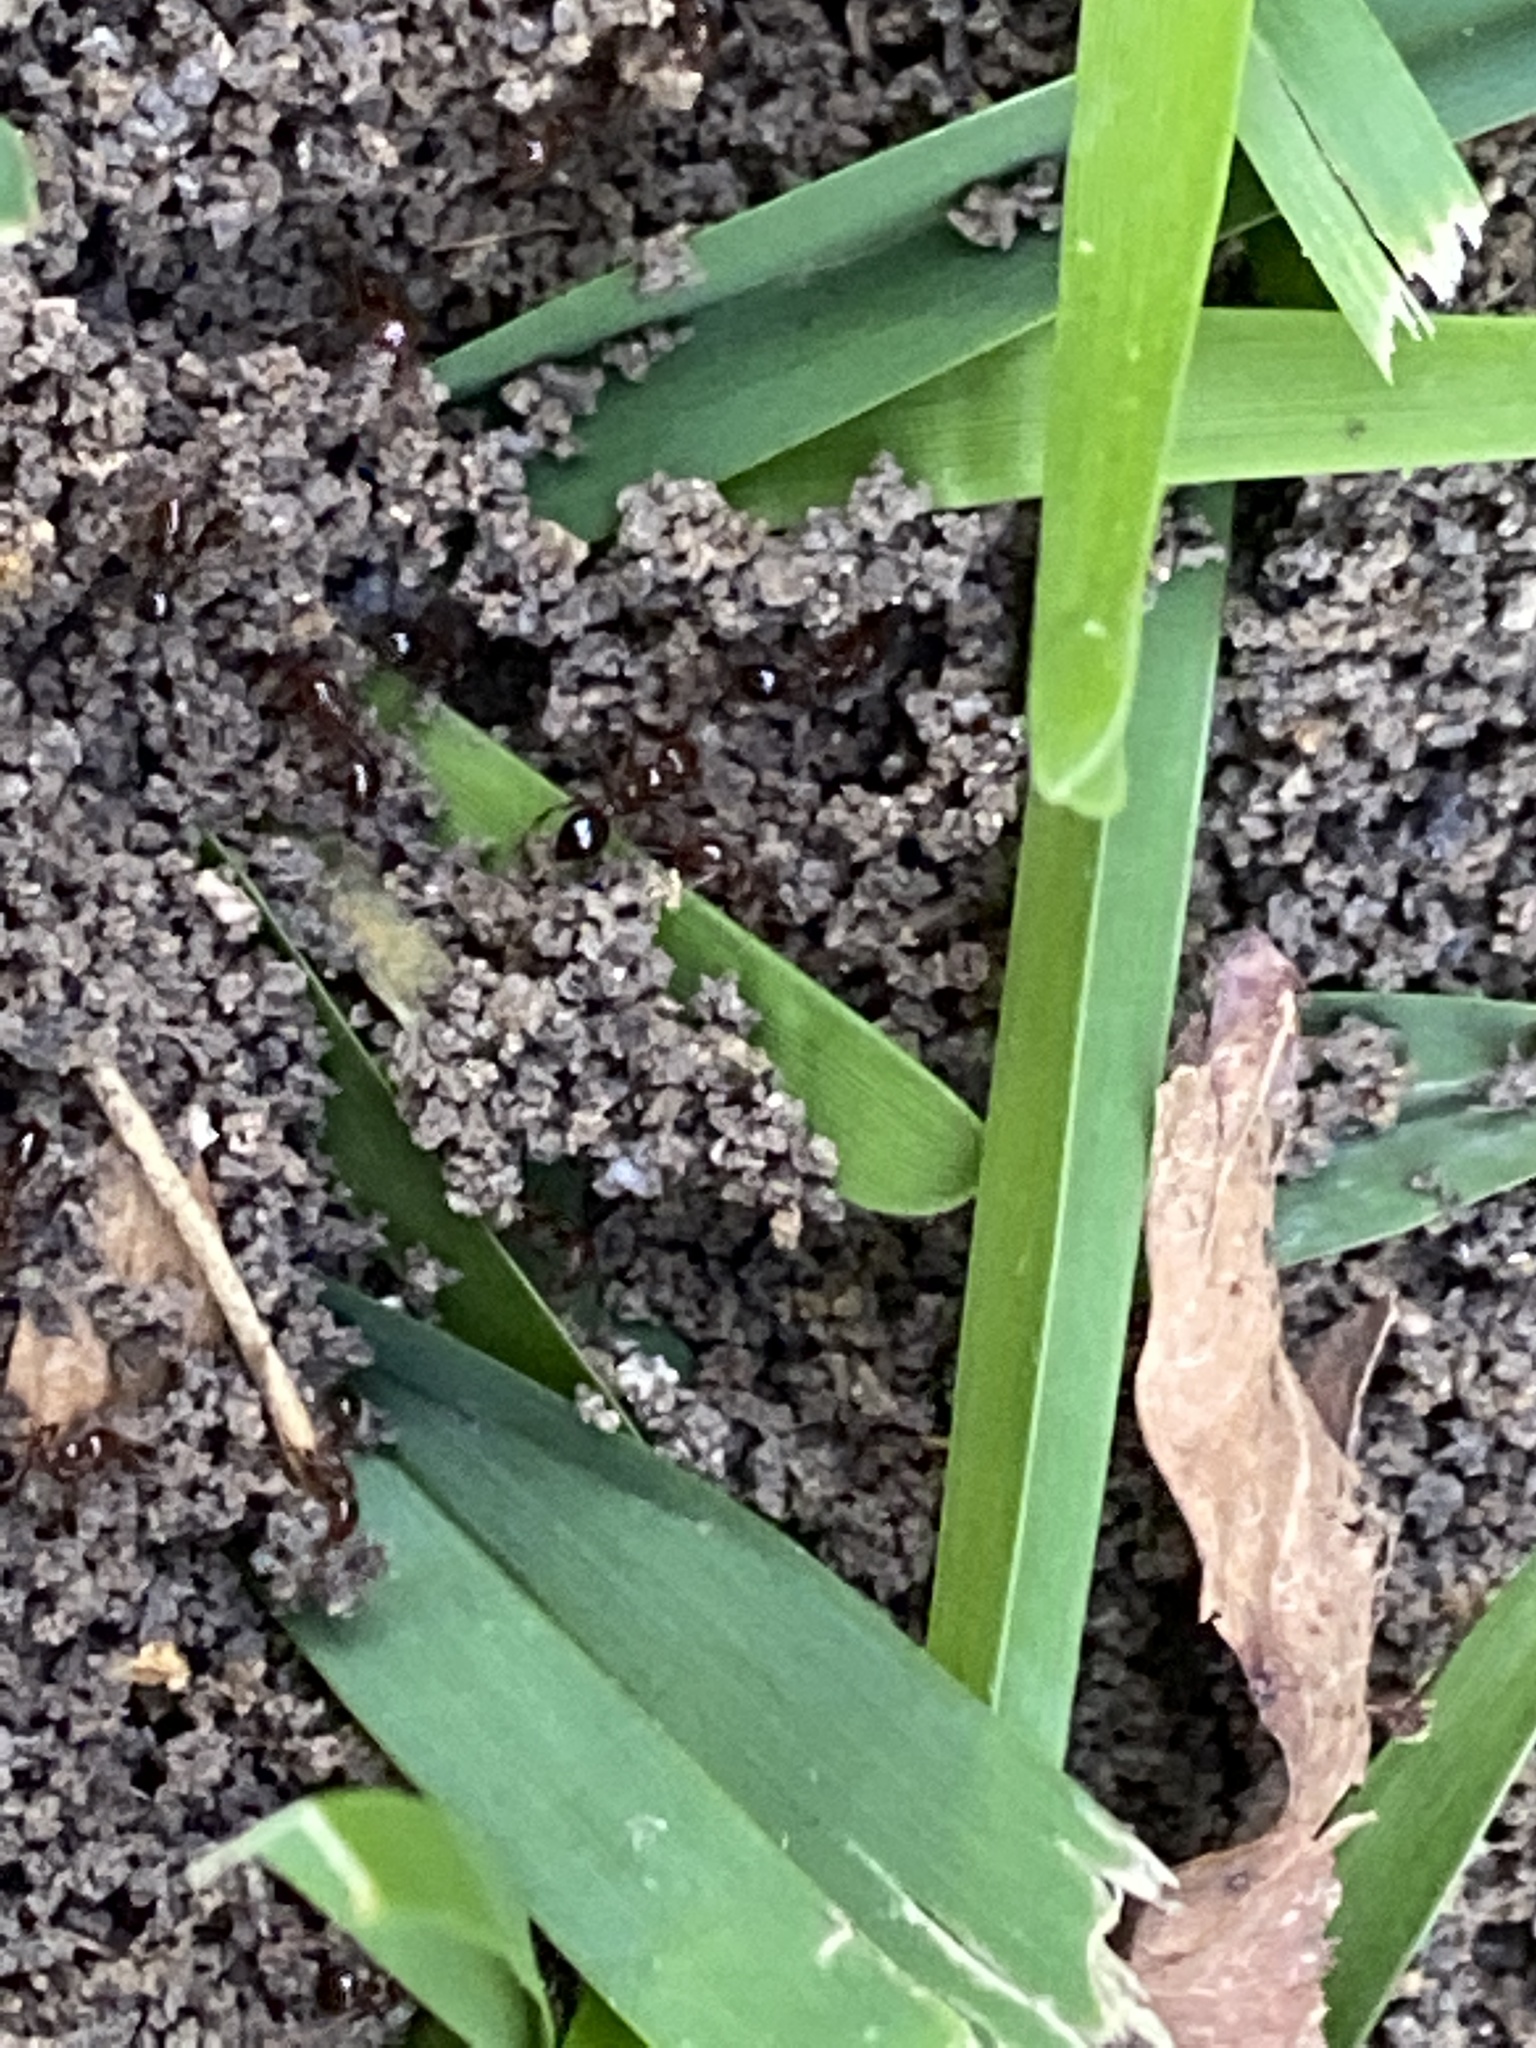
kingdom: Animalia
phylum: Arthropoda
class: Insecta
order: Hymenoptera
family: Formicidae
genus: Solenopsis
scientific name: Solenopsis invicta
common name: Red imported fire ant
